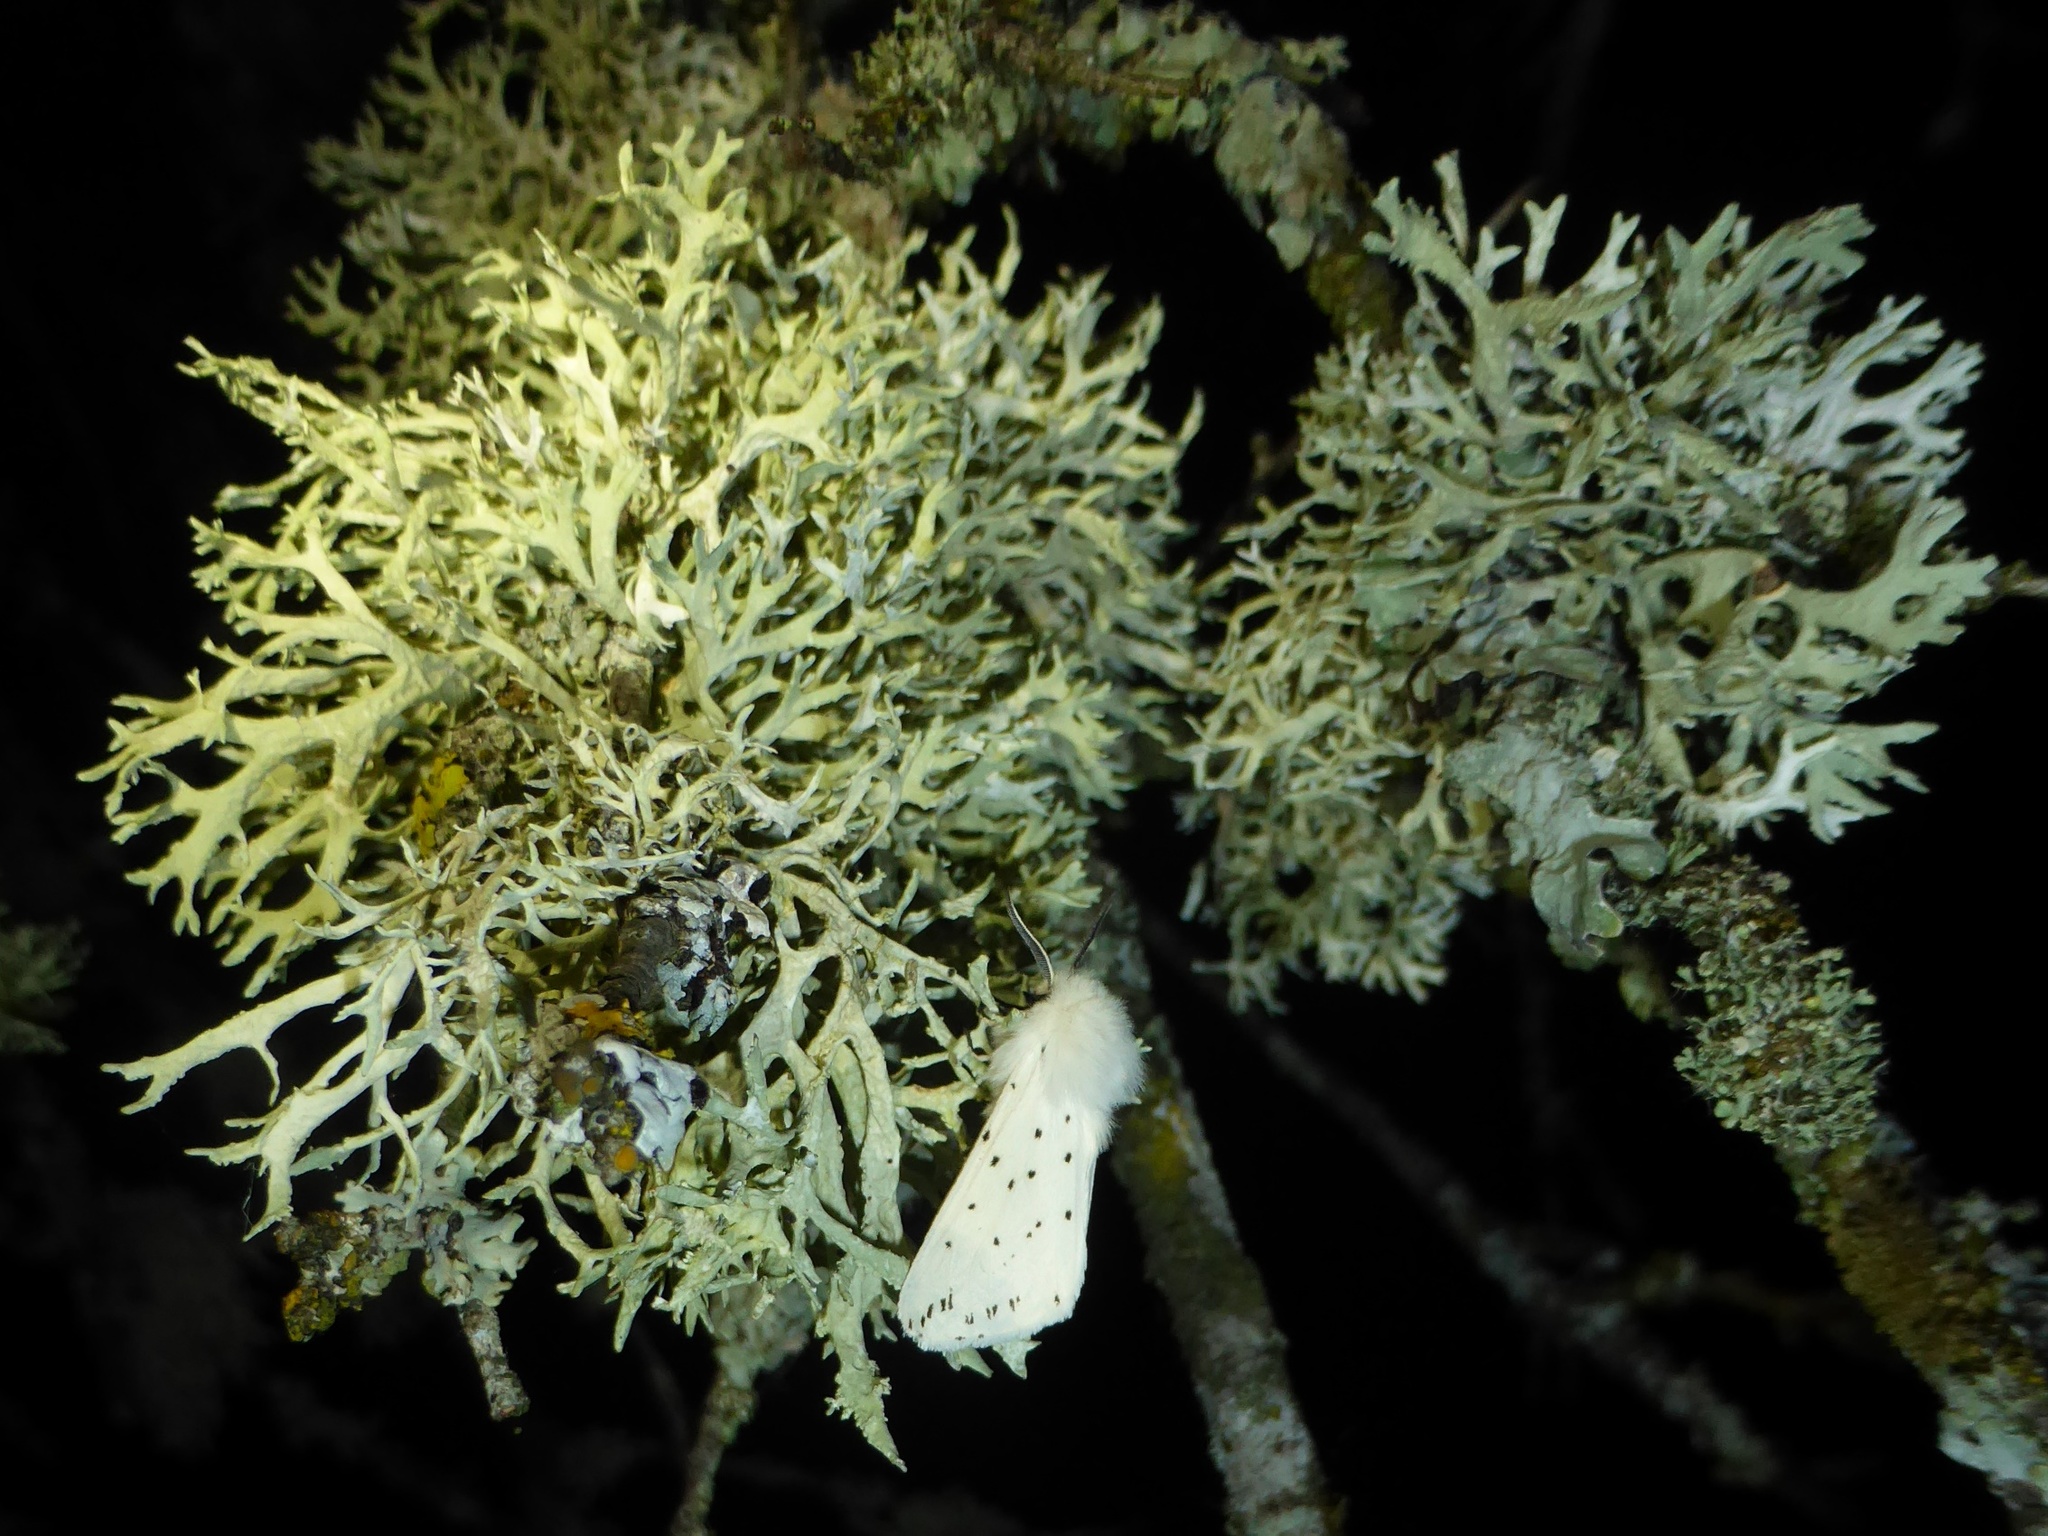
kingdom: Animalia
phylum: Arthropoda
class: Insecta
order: Lepidoptera
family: Erebidae
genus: Spilosoma
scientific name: Spilosoma lubricipeda
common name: White ermine
